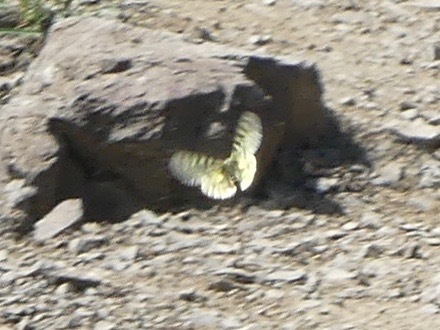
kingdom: Animalia
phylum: Arthropoda
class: Insecta
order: Lepidoptera
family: Papilionidae
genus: Parnassius
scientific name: Parnassius eversmanni
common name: Eversmann's parnassian
